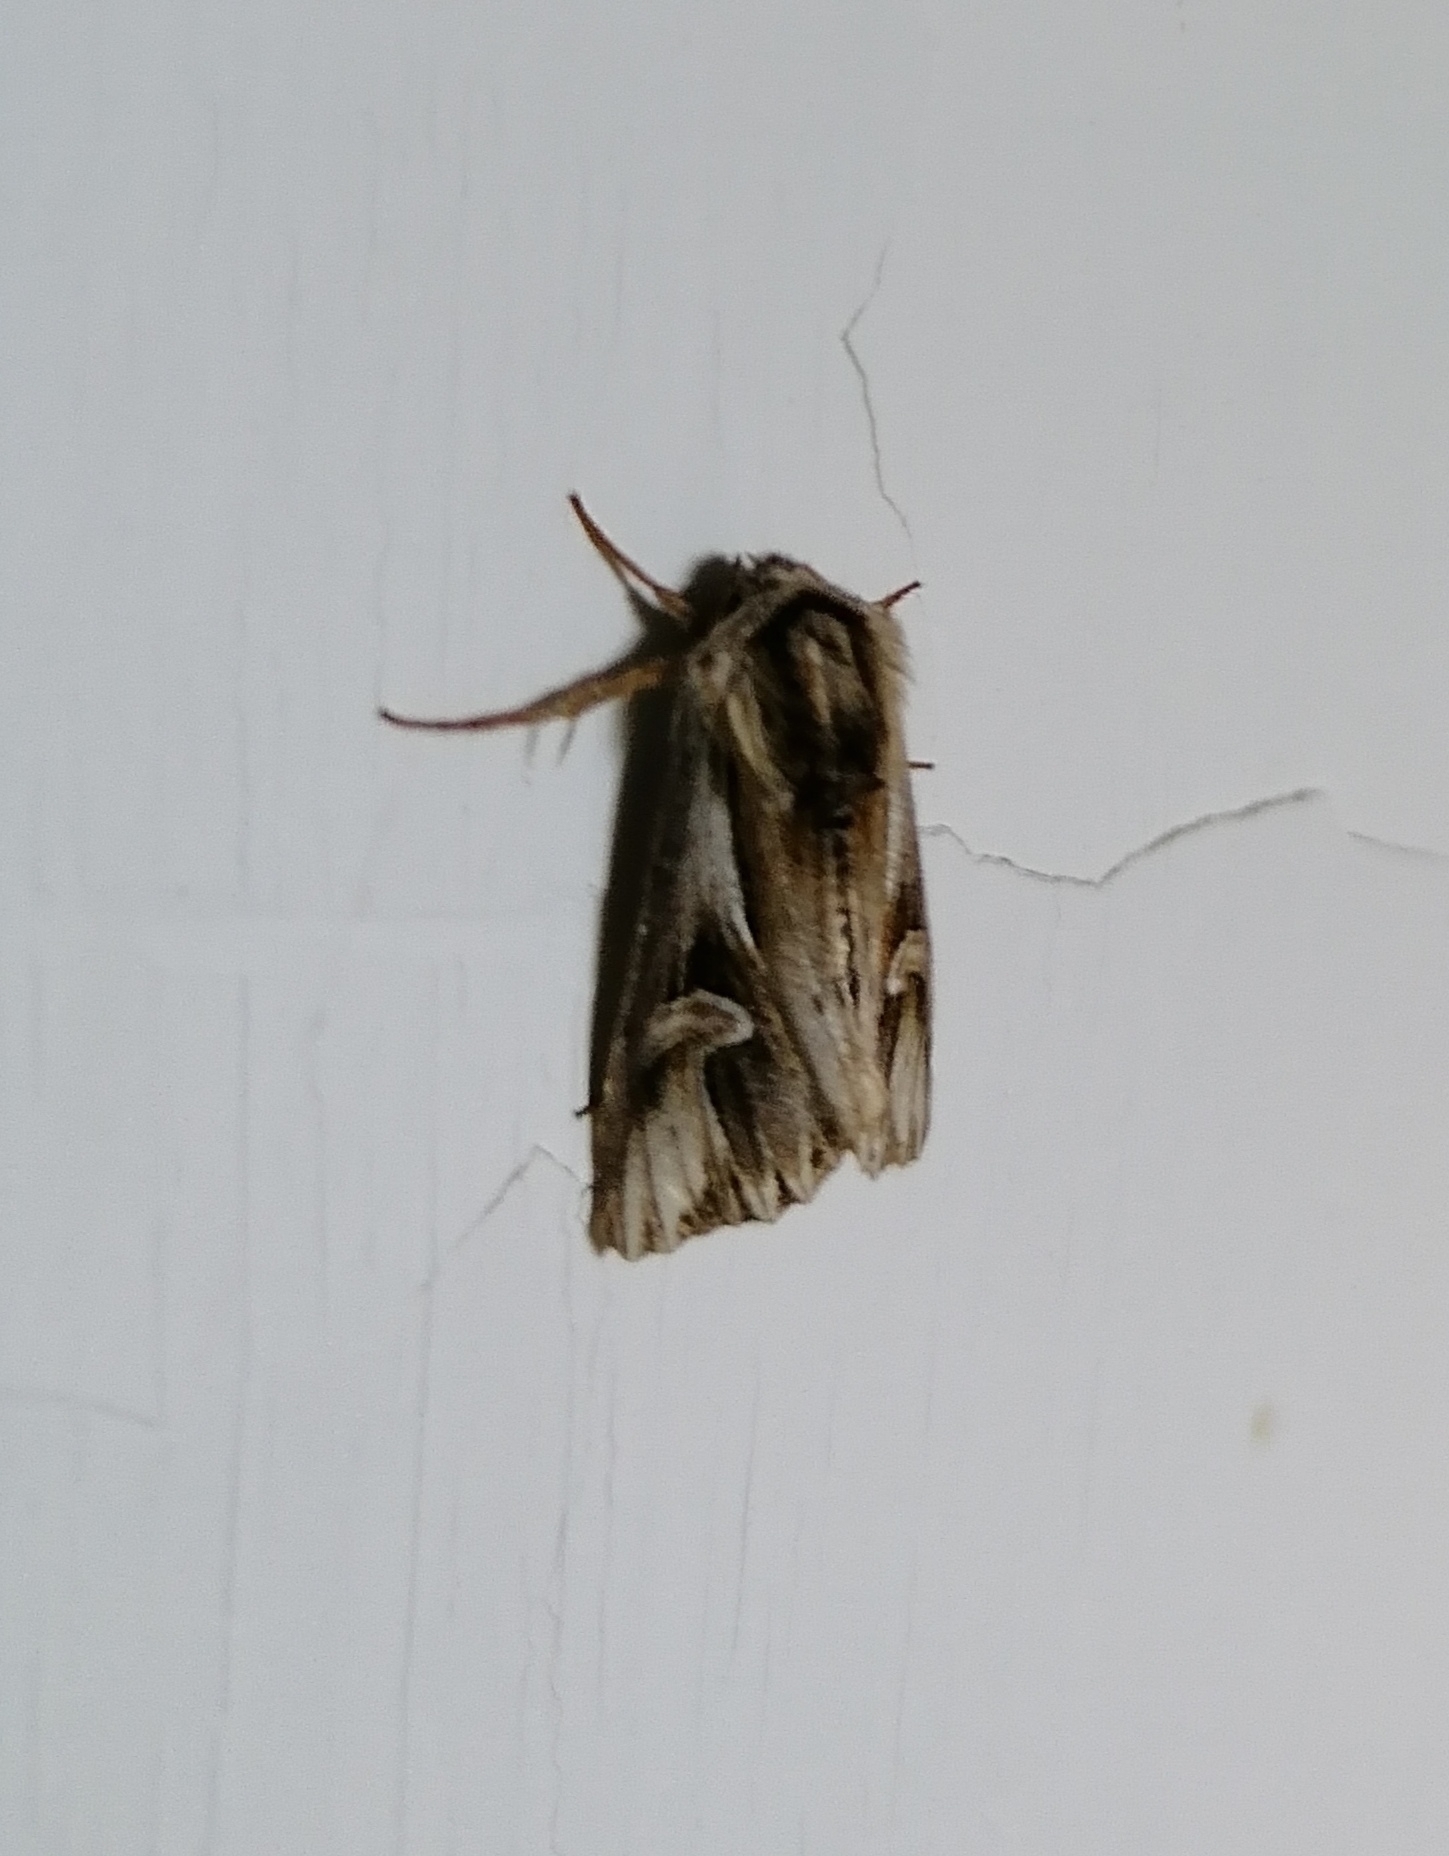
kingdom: Animalia
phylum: Arthropoda
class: Insecta
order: Lepidoptera
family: Noctuidae
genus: Actinotia
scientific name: Actinotia polyodon
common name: Purple cloud
